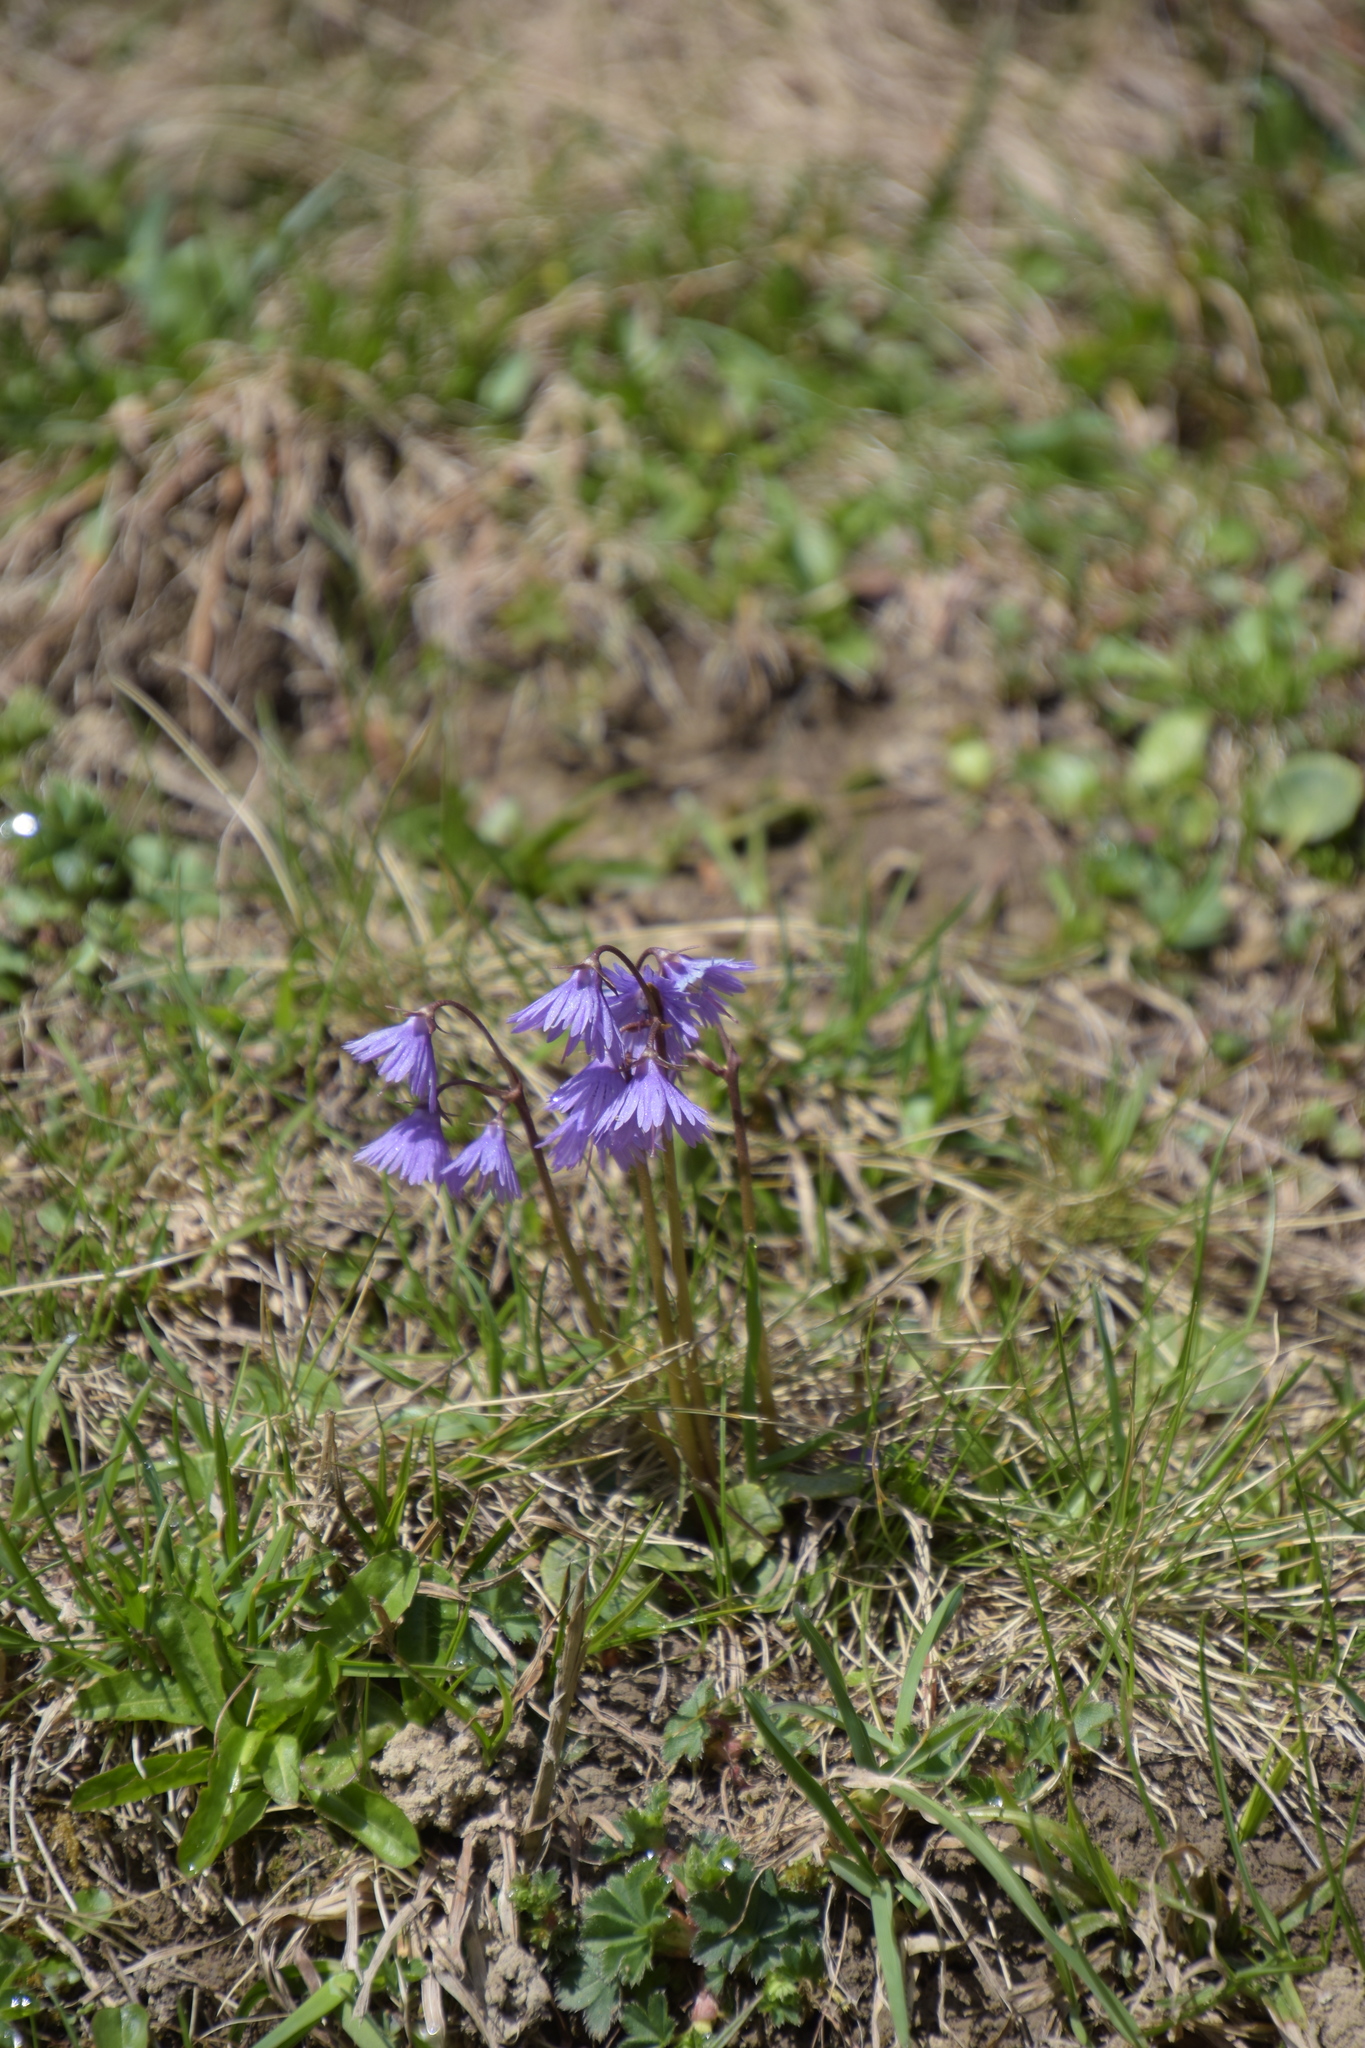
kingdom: Plantae
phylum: Tracheophyta
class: Magnoliopsida
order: Ericales
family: Primulaceae
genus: Soldanella
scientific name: Soldanella alpina
